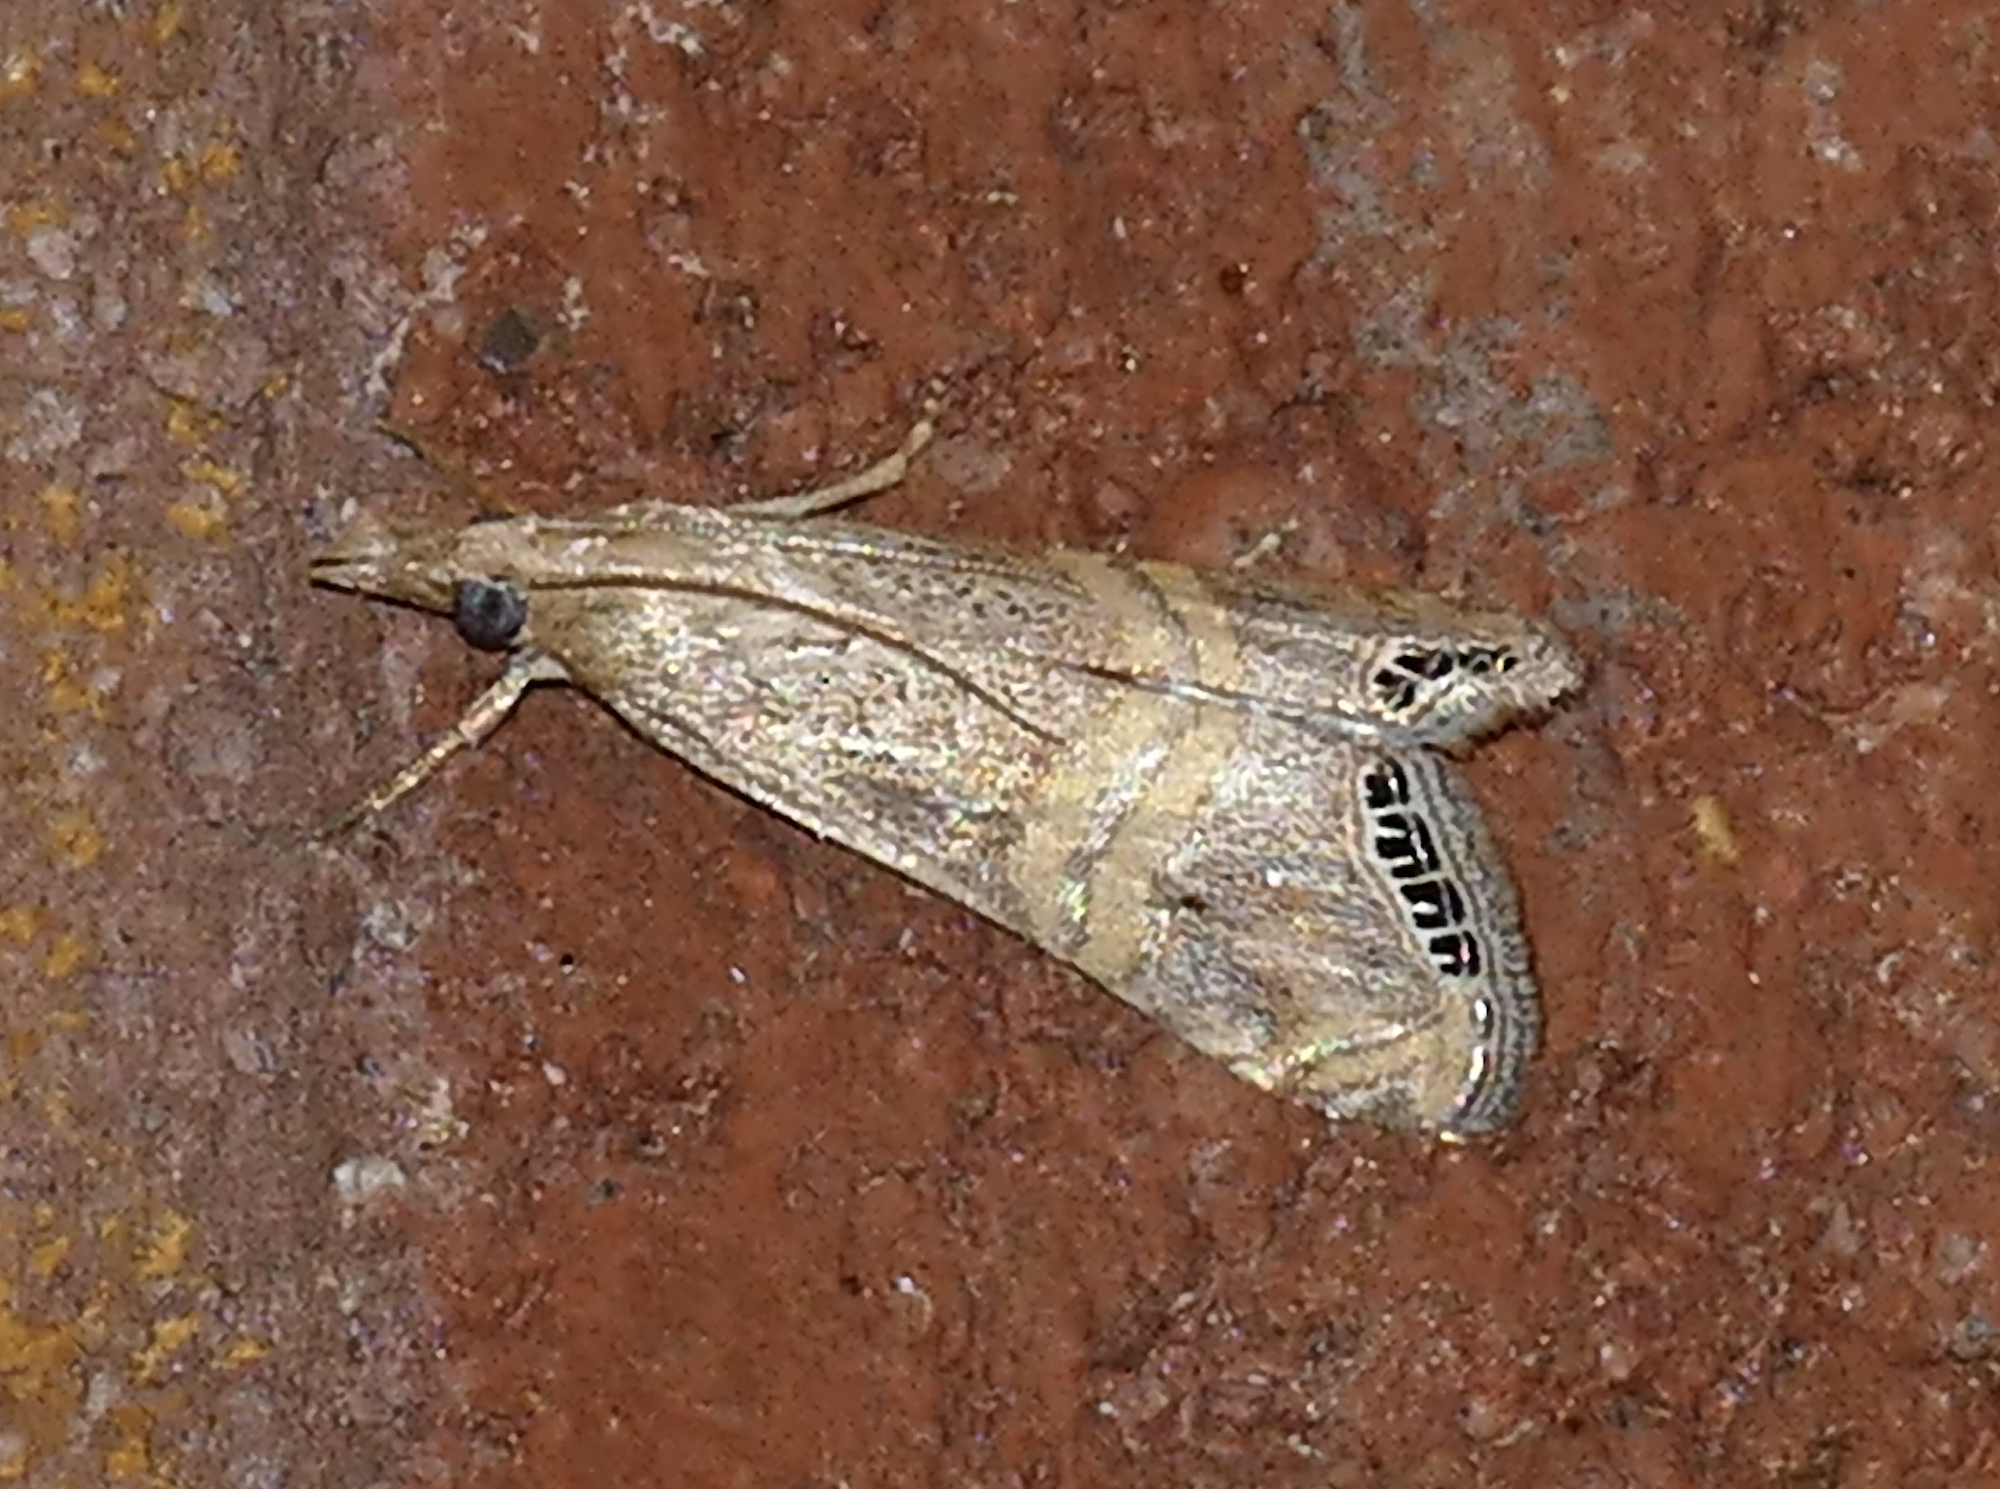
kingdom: Animalia
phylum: Arthropoda
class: Insecta
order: Lepidoptera
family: Crambidae
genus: Euchromius
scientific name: Euchromius ocellea
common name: Necklace veneer moth
